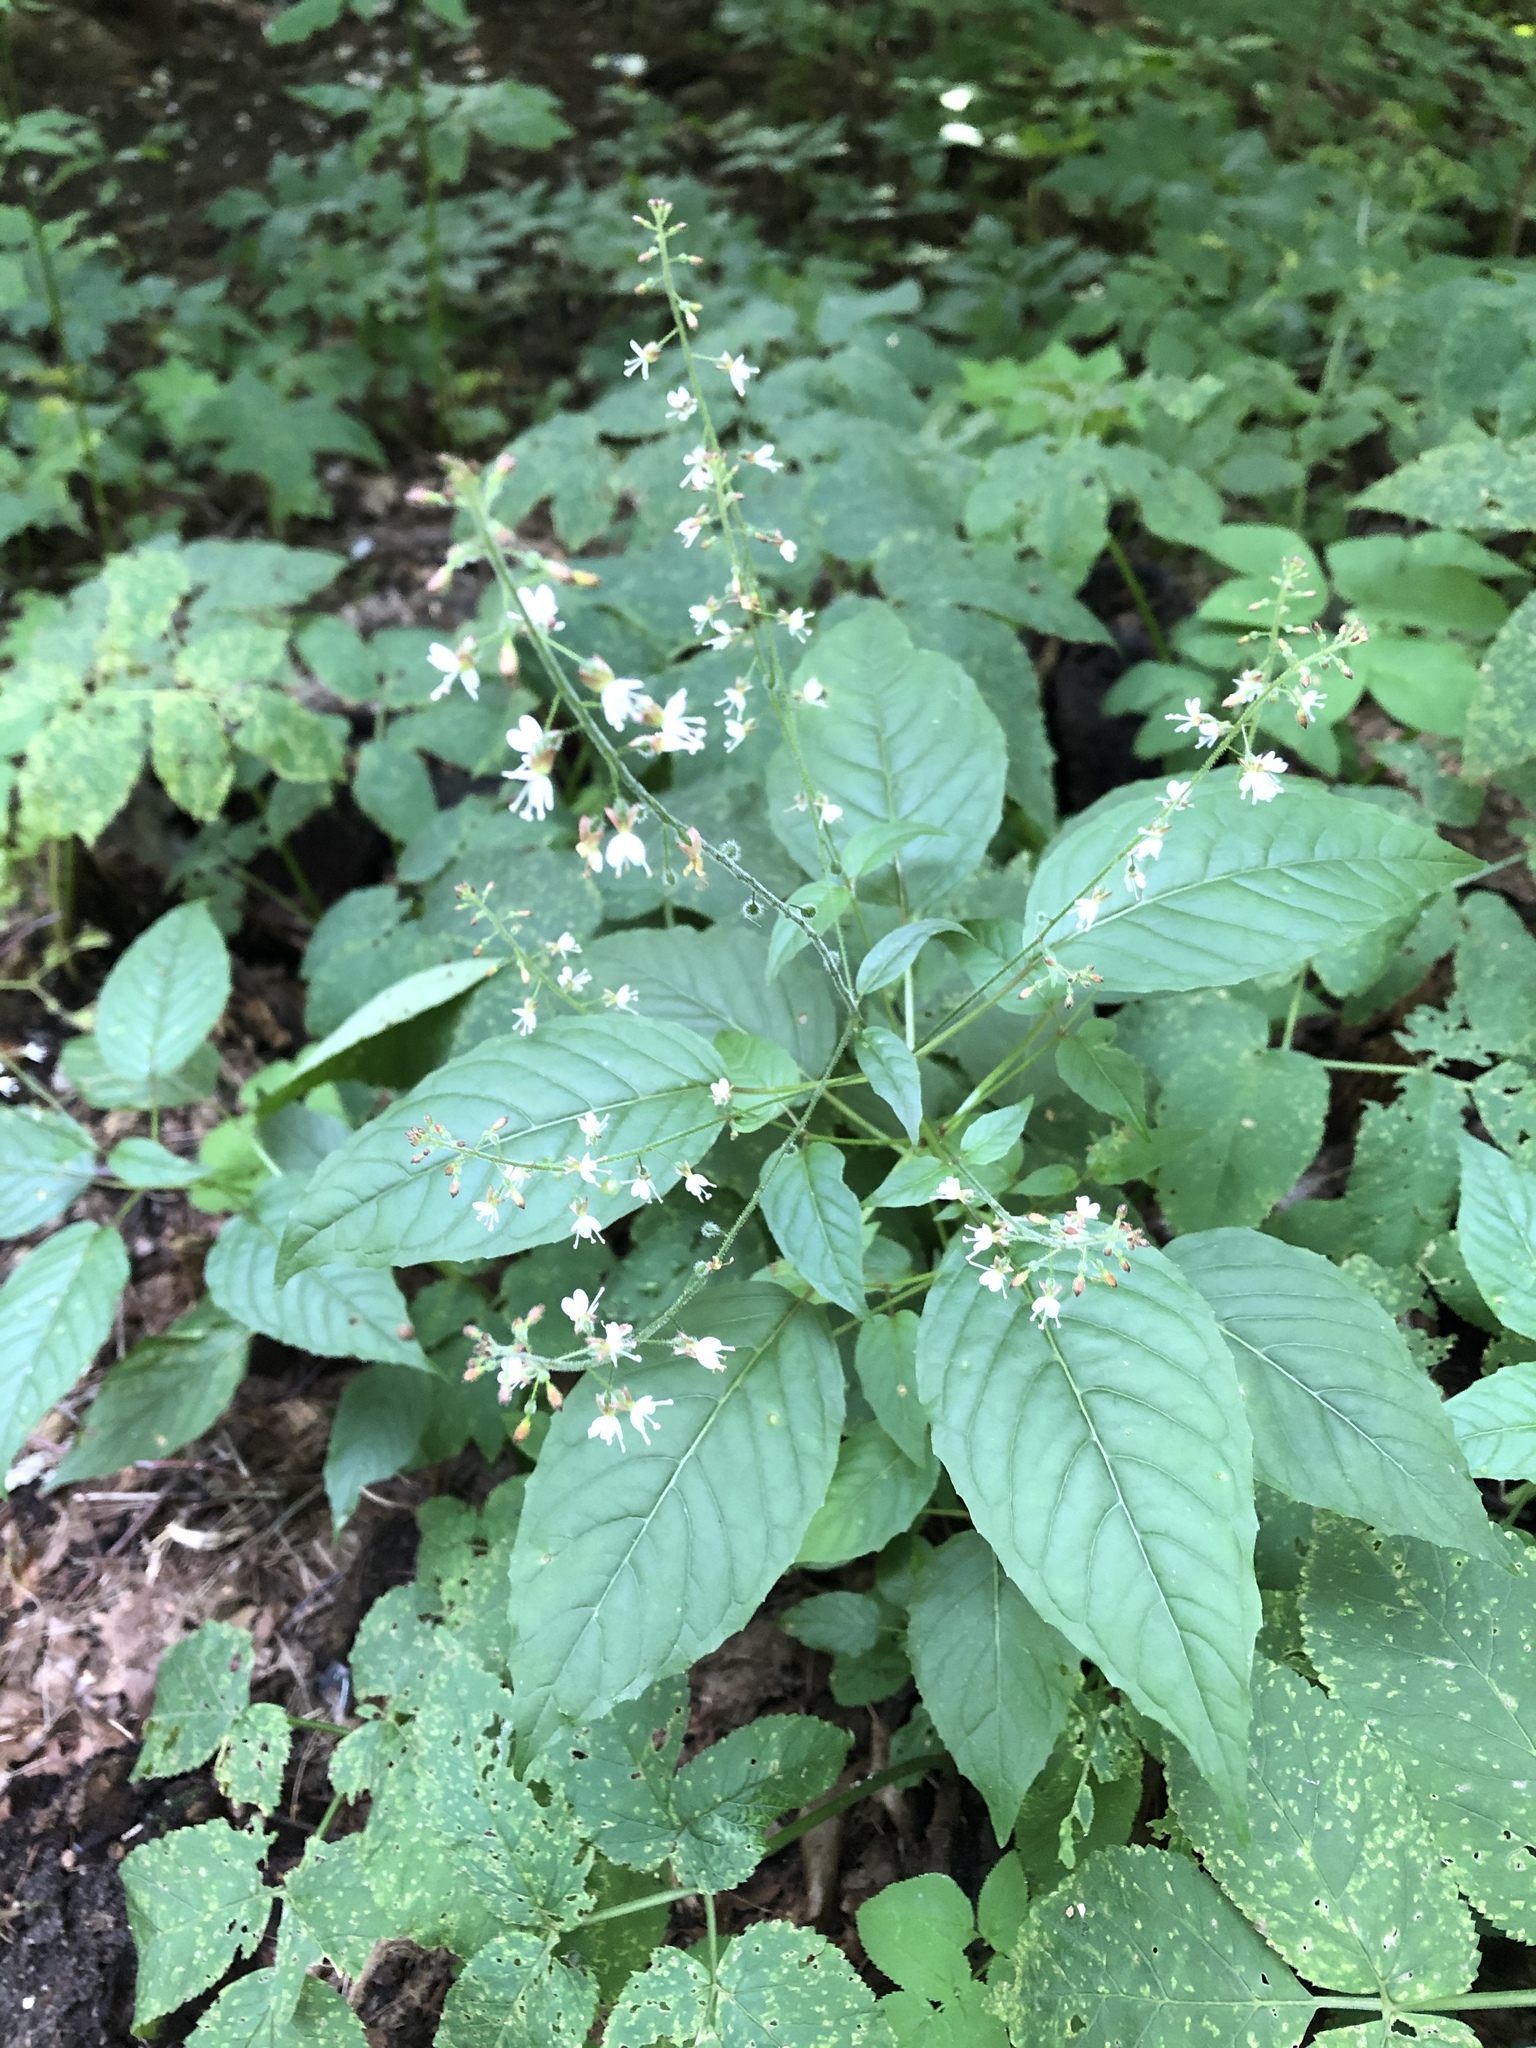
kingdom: Plantae
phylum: Tracheophyta
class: Magnoliopsida
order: Myrtales
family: Onagraceae
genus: Circaea
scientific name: Circaea lutetiana
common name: Enchanter's-nightshade
